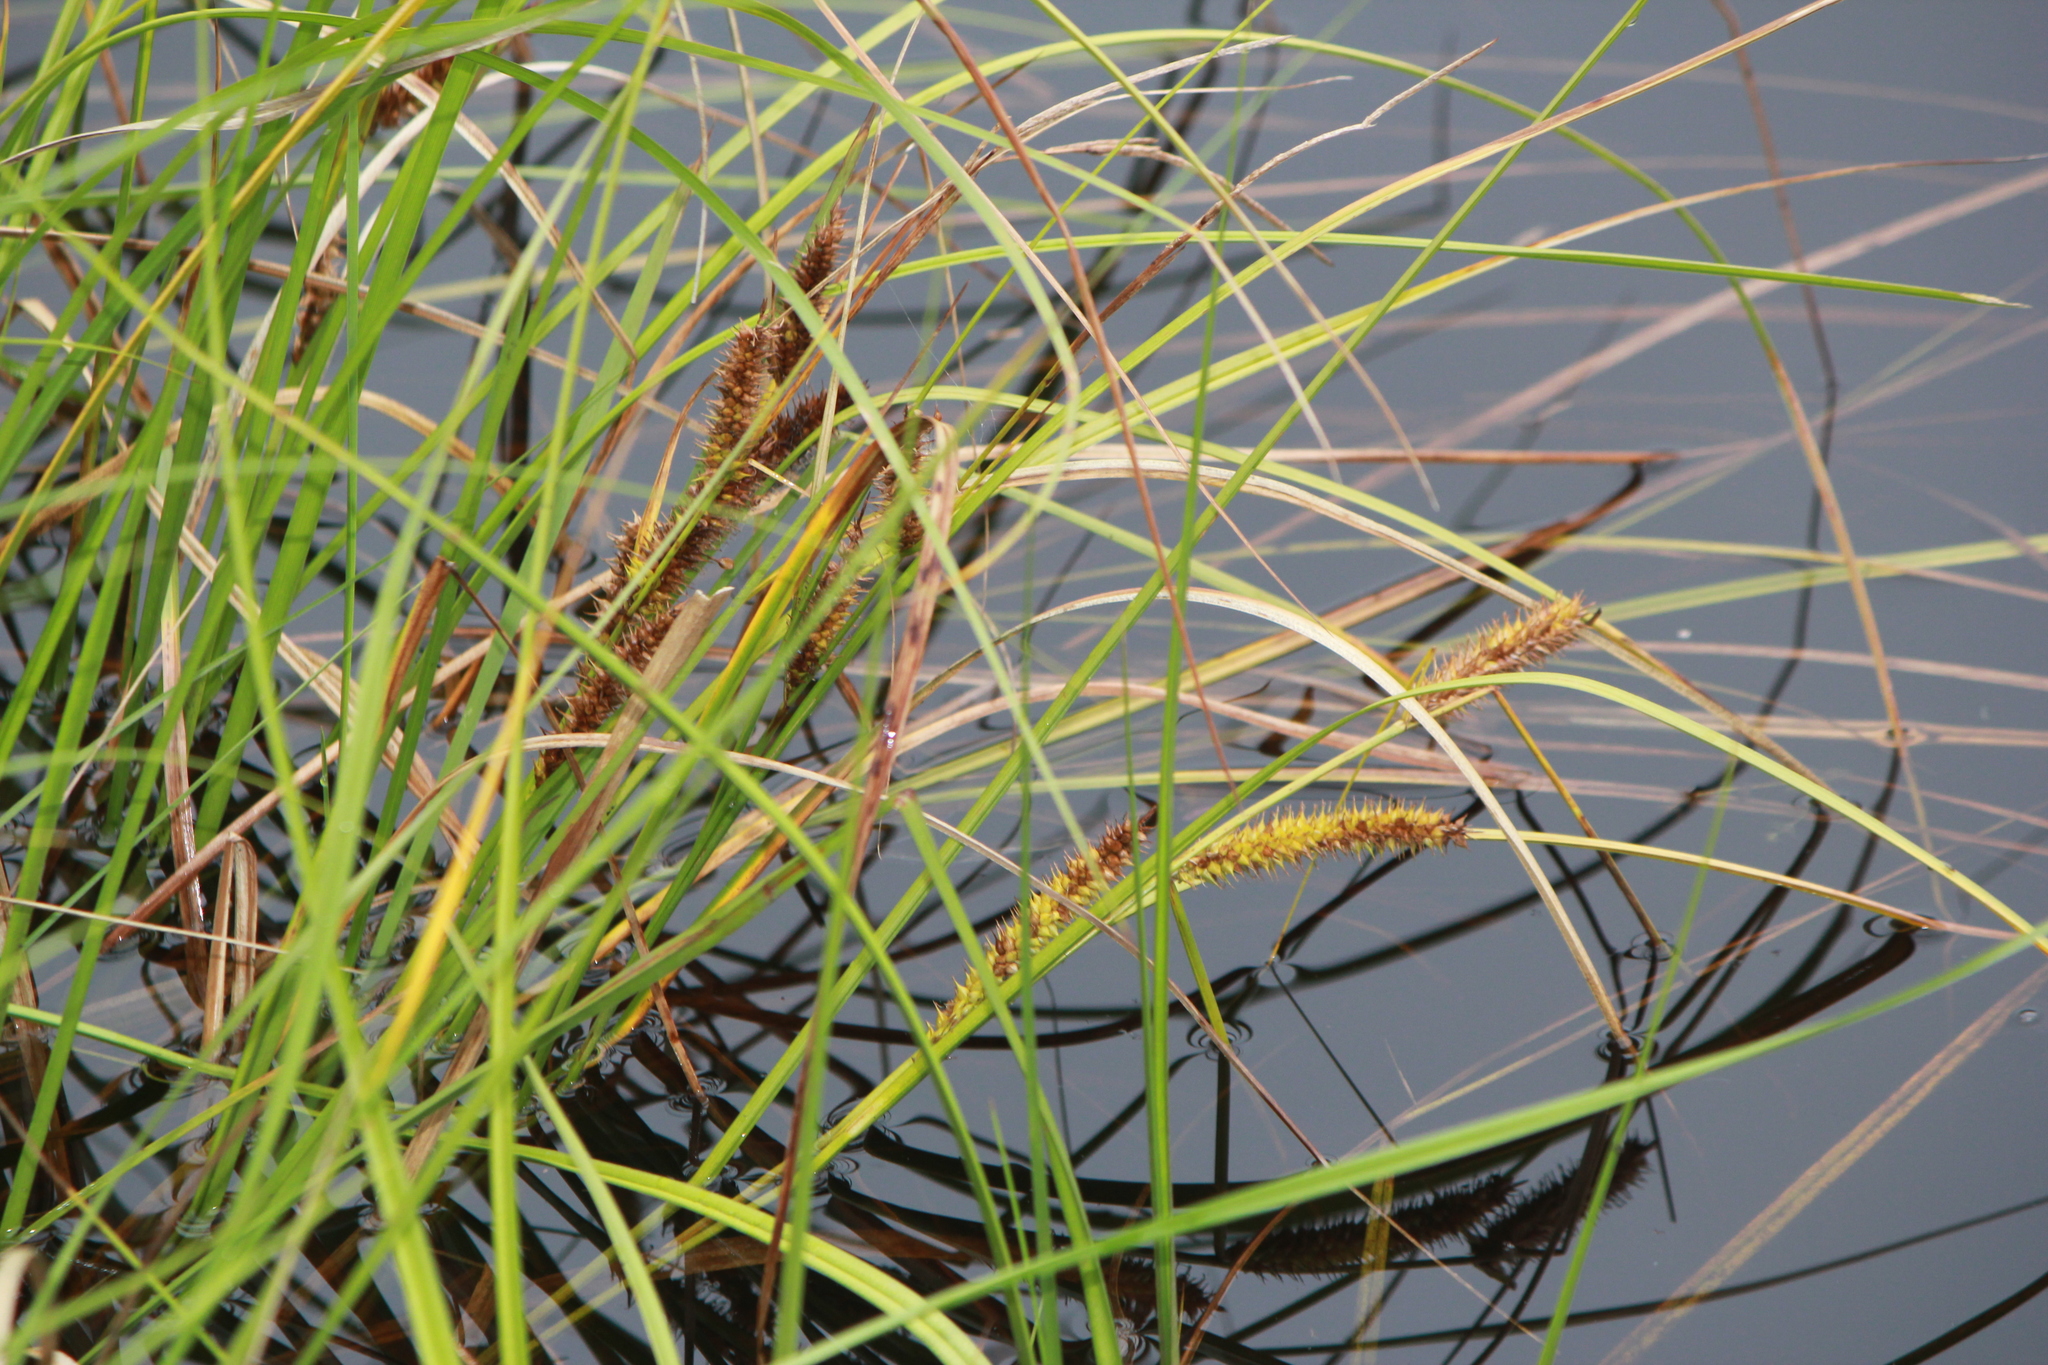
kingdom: Plantae
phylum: Tracheophyta
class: Liliopsida
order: Poales
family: Cyperaceae
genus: Carex
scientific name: Carex utriculata
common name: Beaked sedge
